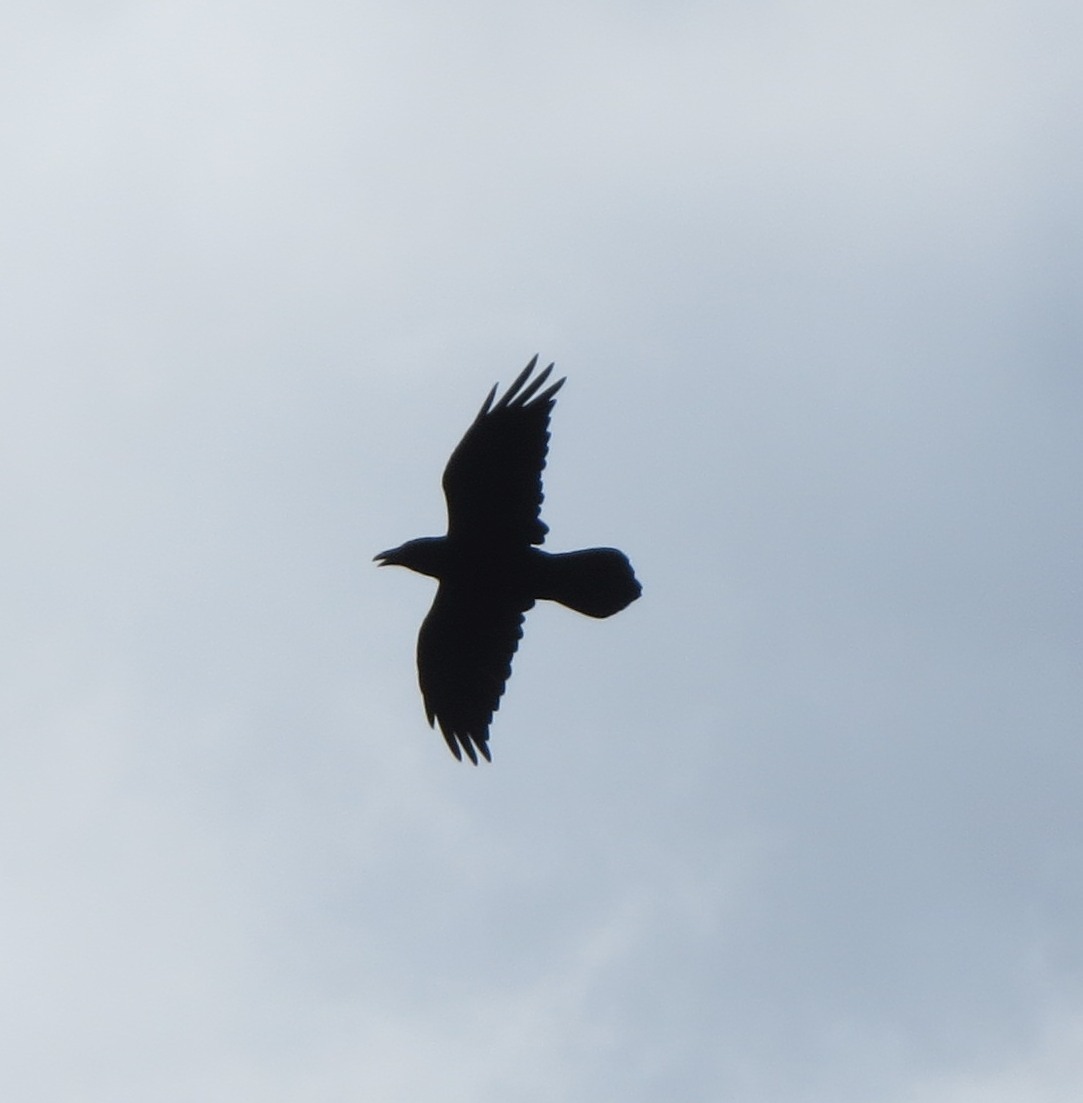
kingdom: Animalia
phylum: Chordata
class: Aves
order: Passeriformes
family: Corvidae
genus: Corvus
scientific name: Corvus corax
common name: Common raven
